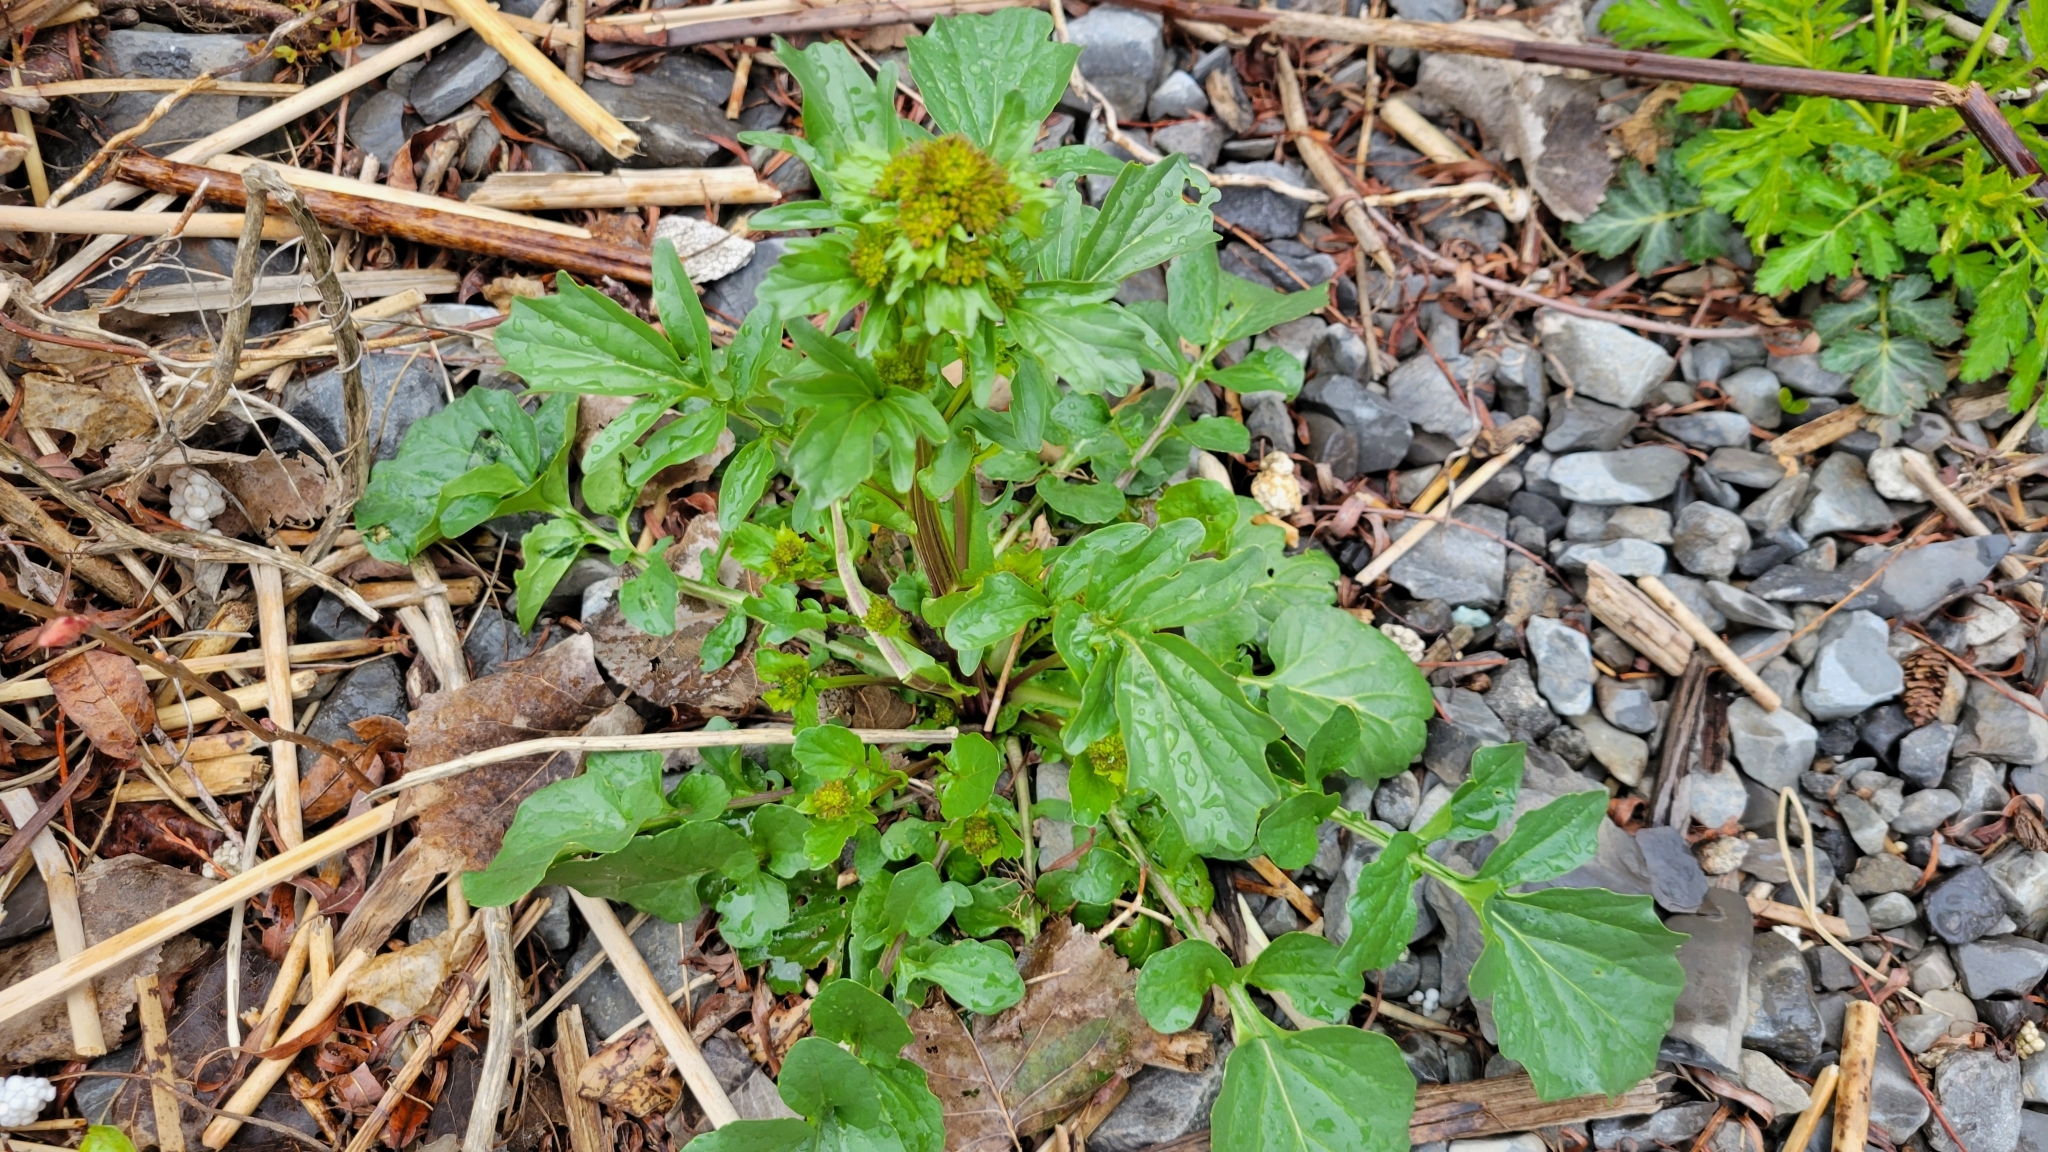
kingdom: Plantae
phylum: Tracheophyta
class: Magnoliopsida
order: Brassicales
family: Brassicaceae
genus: Barbarea
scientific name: Barbarea vulgaris
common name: Cressy-greens
